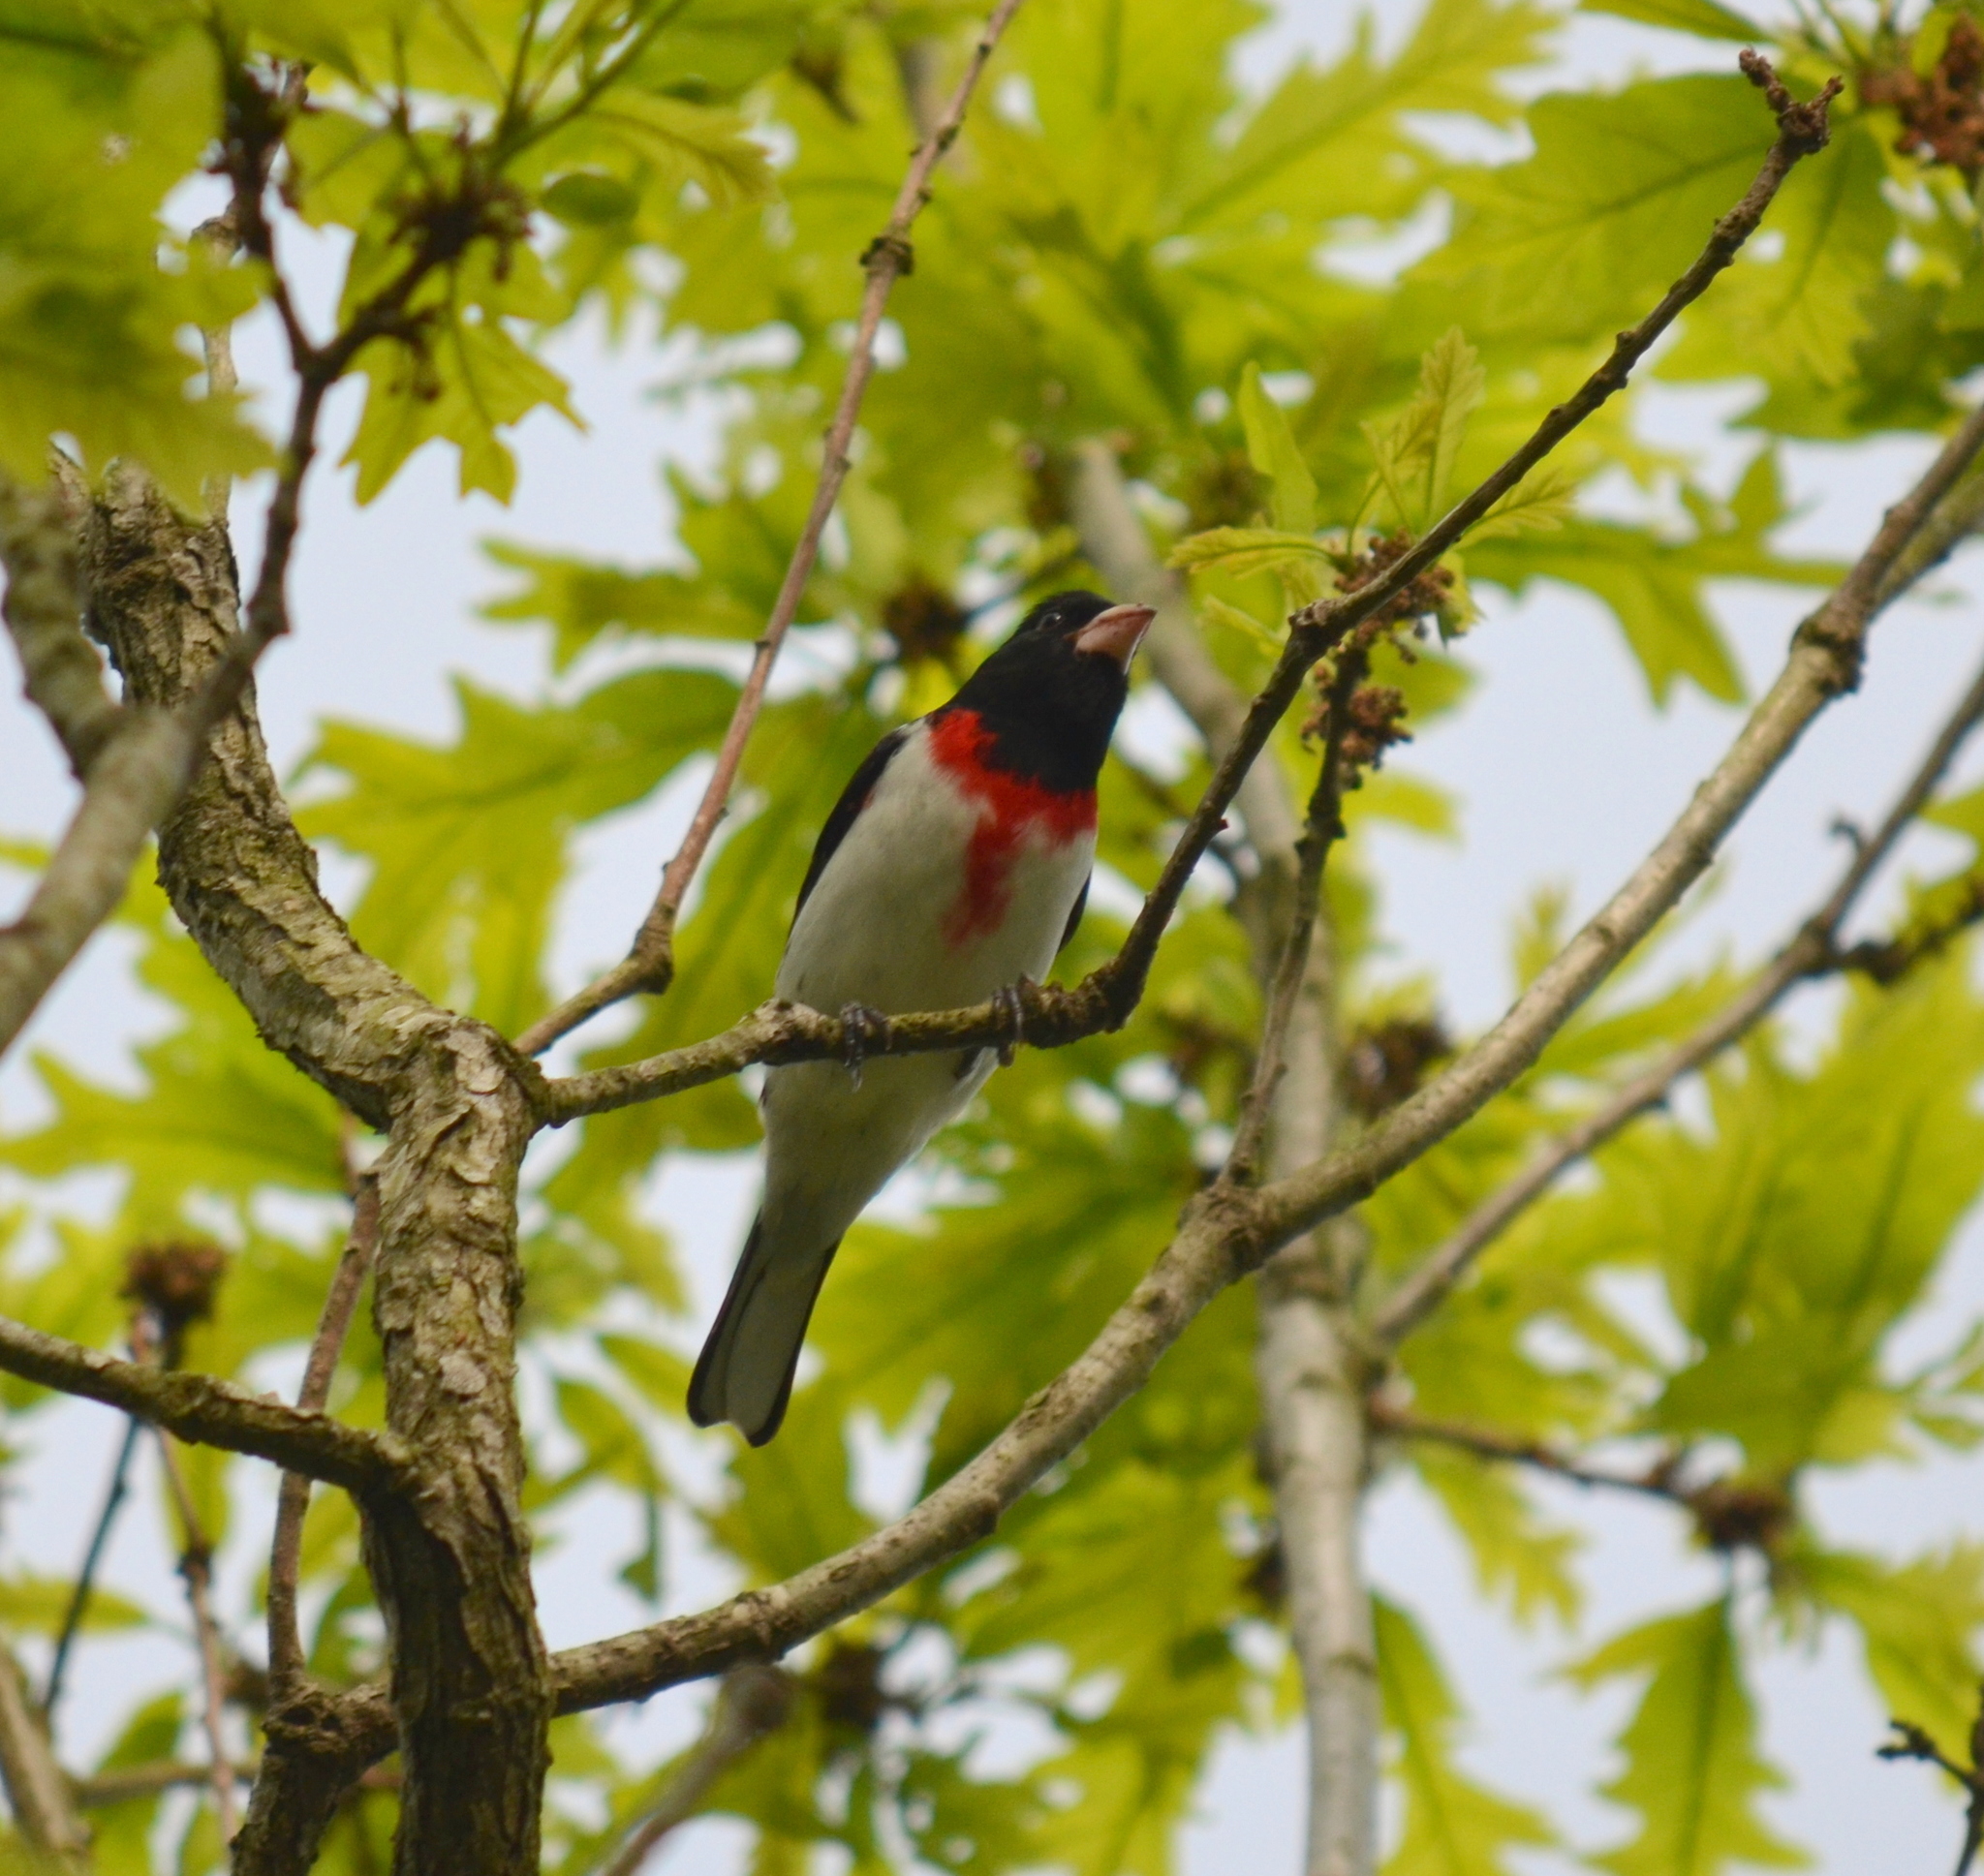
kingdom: Animalia
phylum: Chordata
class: Aves
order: Passeriformes
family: Cardinalidae
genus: Pheucticus
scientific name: Pheucticus ludovicianus
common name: Rose-breasted grosbeak
